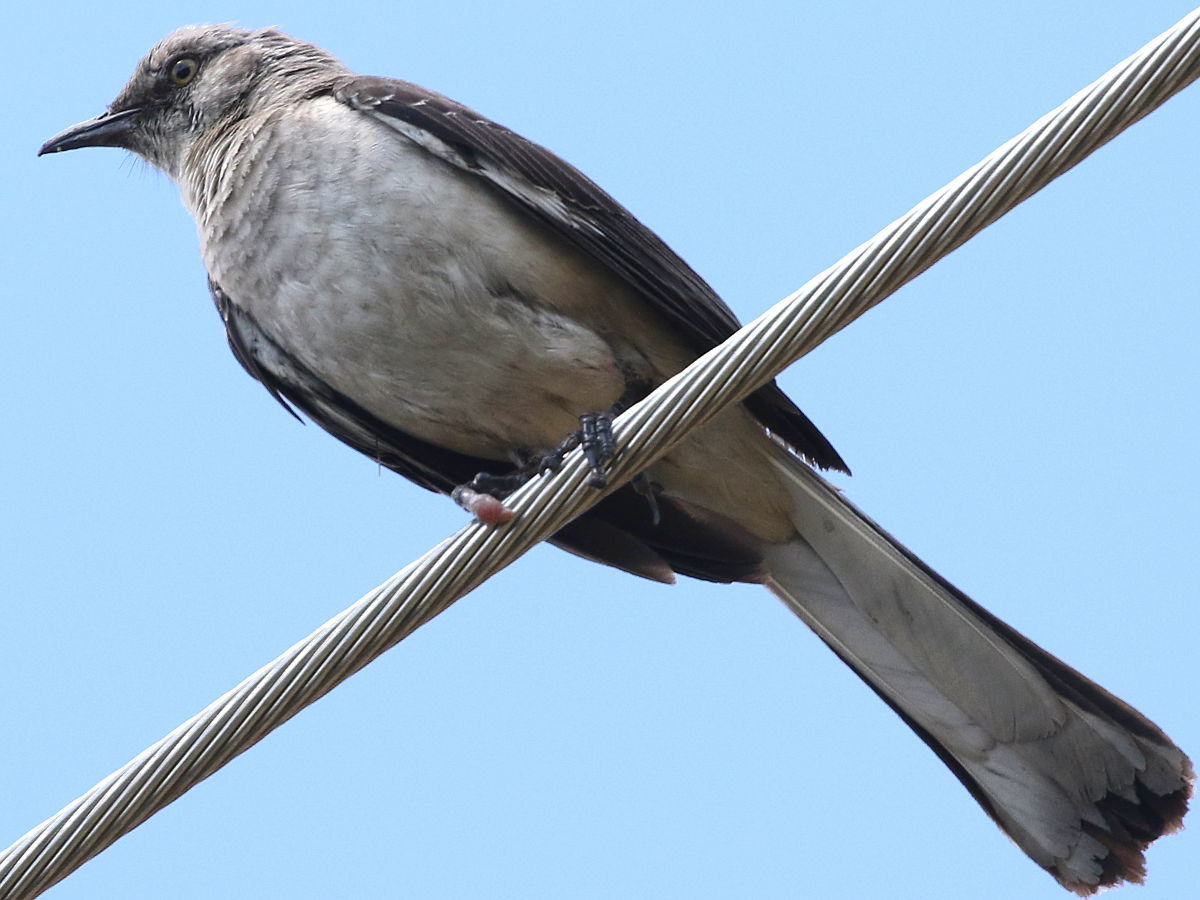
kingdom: Animalia
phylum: Chordata
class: Aves
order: Passeriformes
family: Mimidae
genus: Mimus
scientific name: Mimus polyglottos
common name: Northern mockingbird
